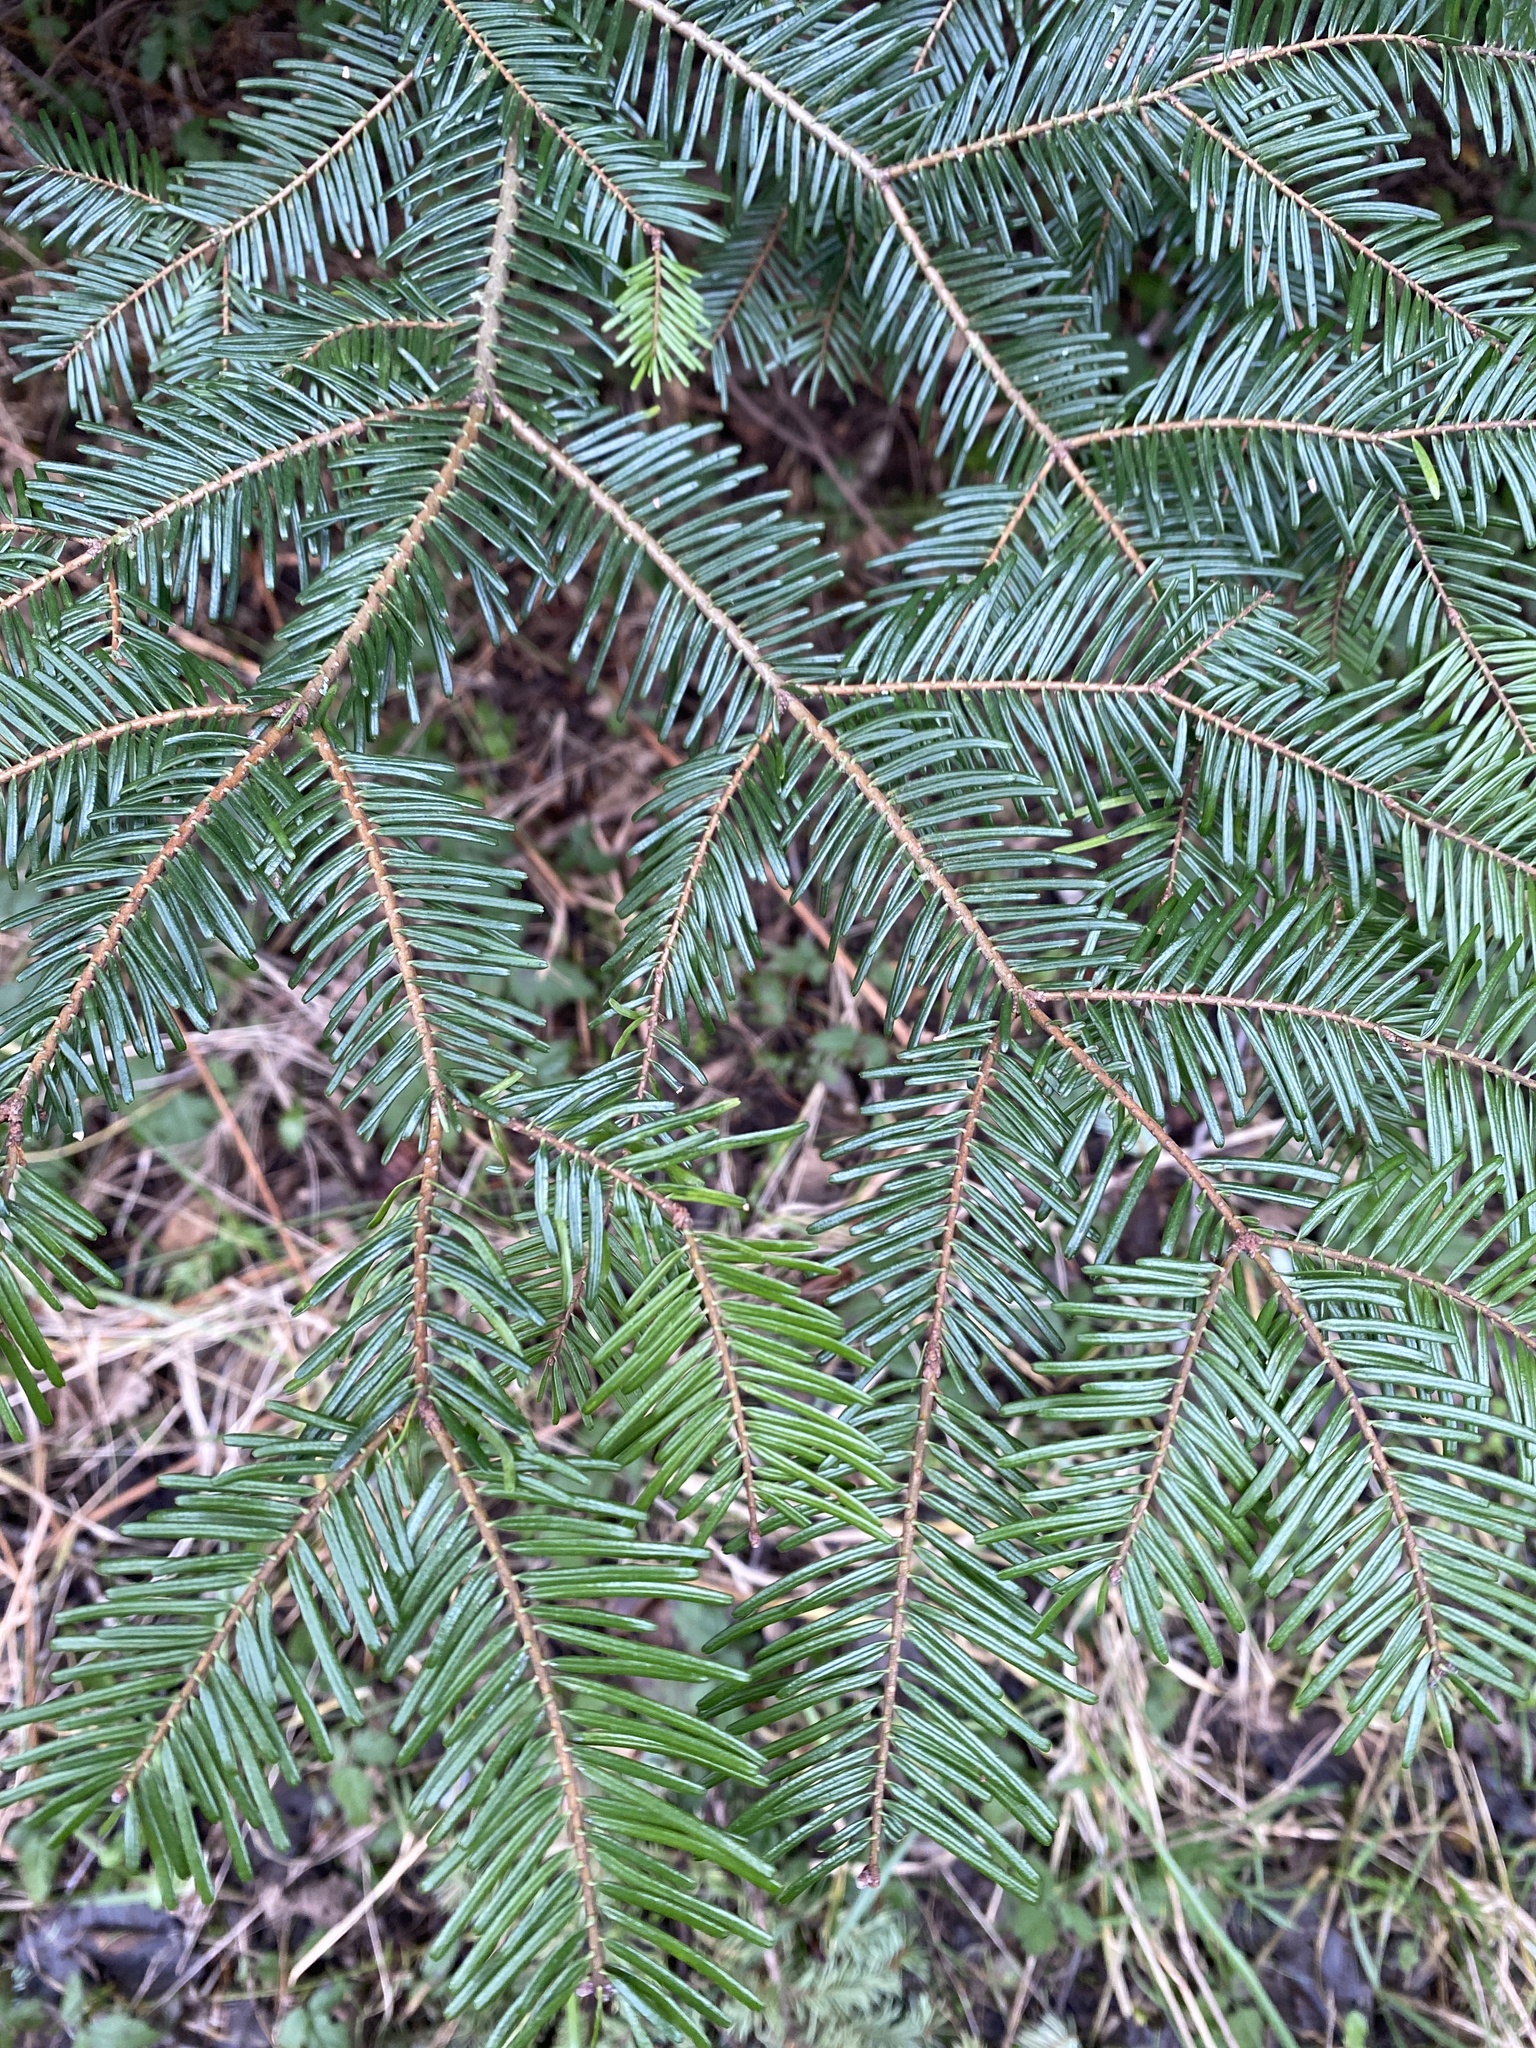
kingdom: Plantae
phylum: Tracheophyta
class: Pinopsida
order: Pinales
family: Pinaceae
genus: Abies
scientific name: Abies grandis
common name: Giant fir
